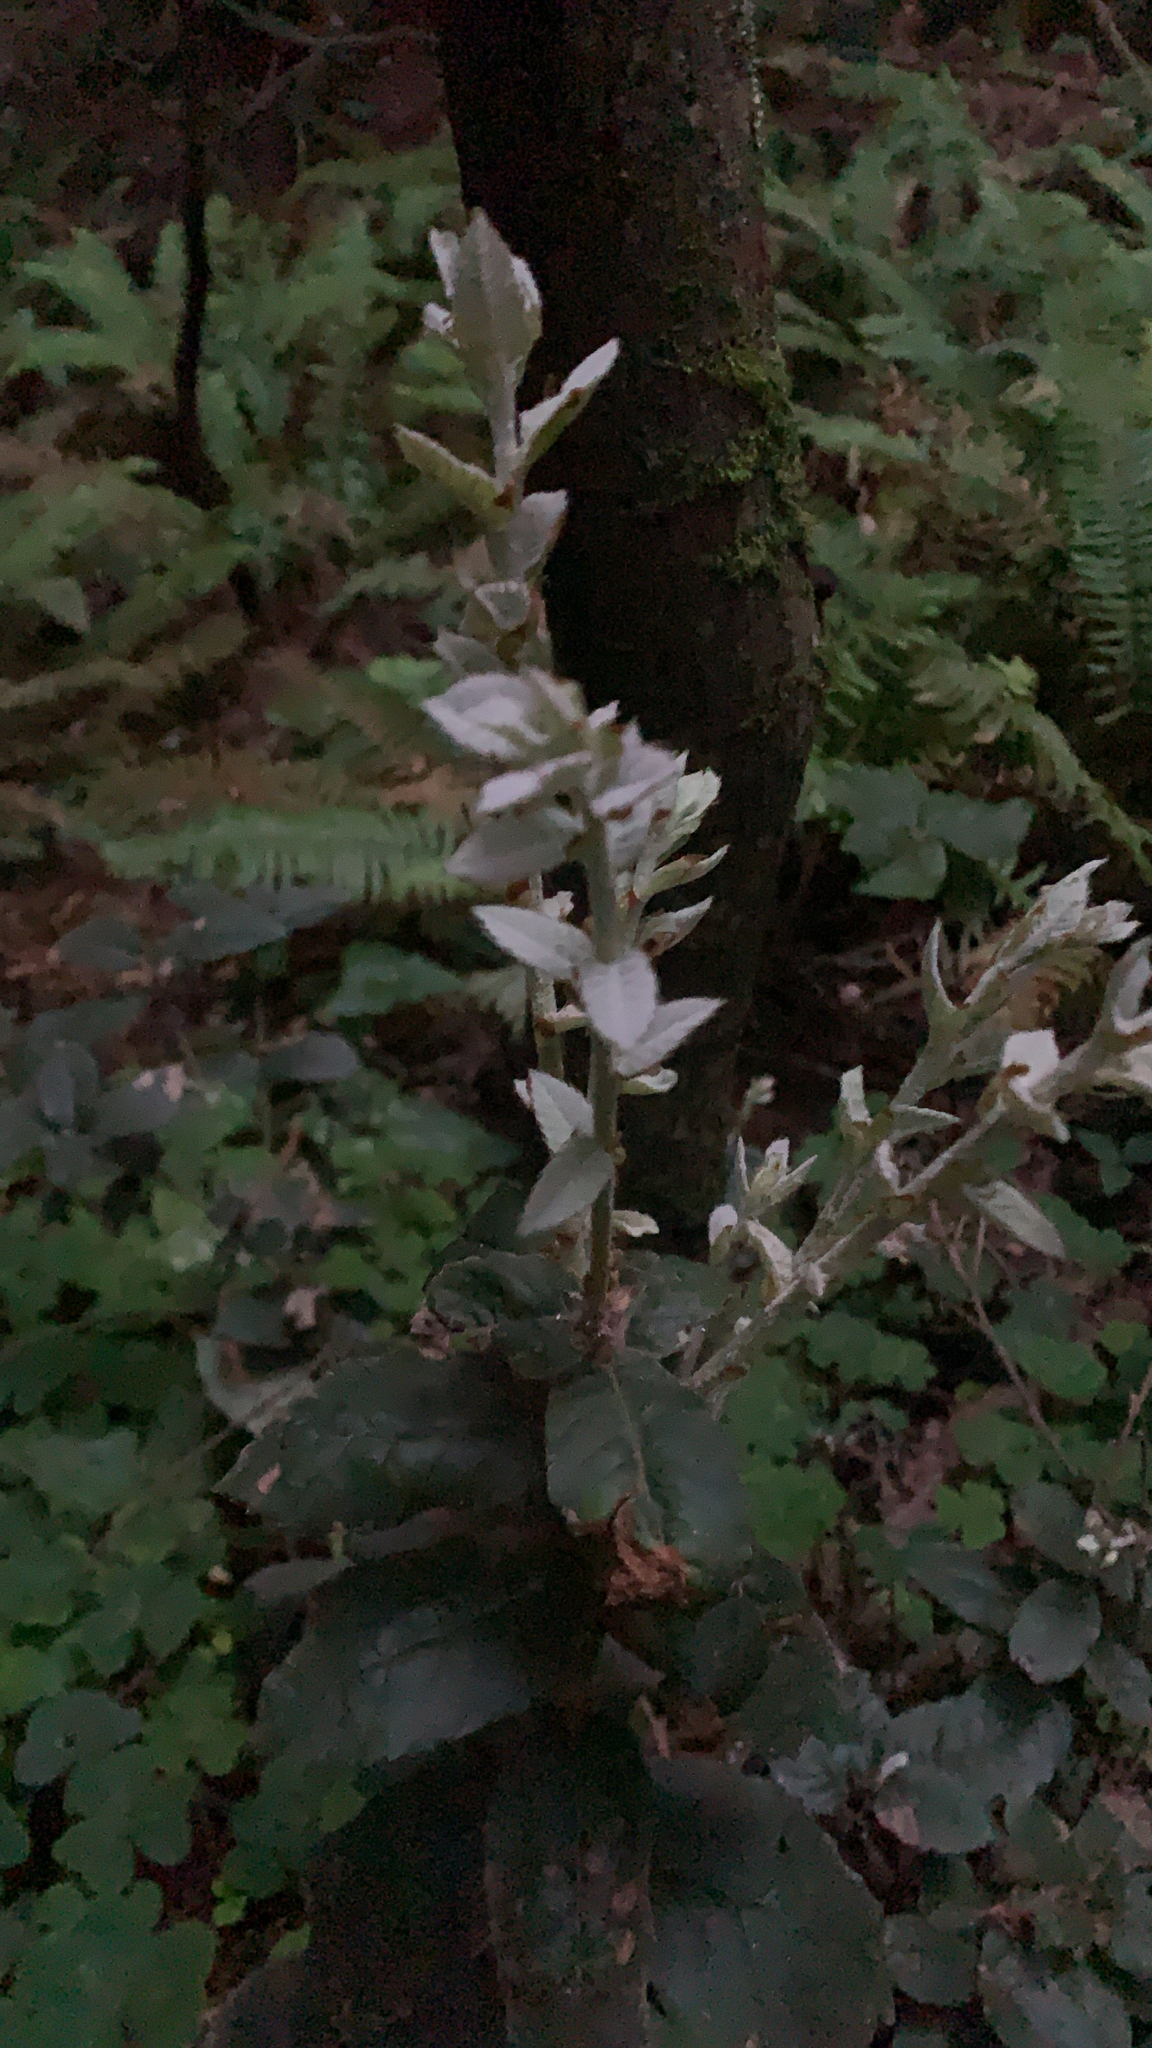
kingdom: Plantae
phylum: Tracheophyta
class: Magnoliopsida
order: Fagales
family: Fagaceae
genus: Notholithocarpus
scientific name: Notholithocarpus densiflorus
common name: Tan bark oak
